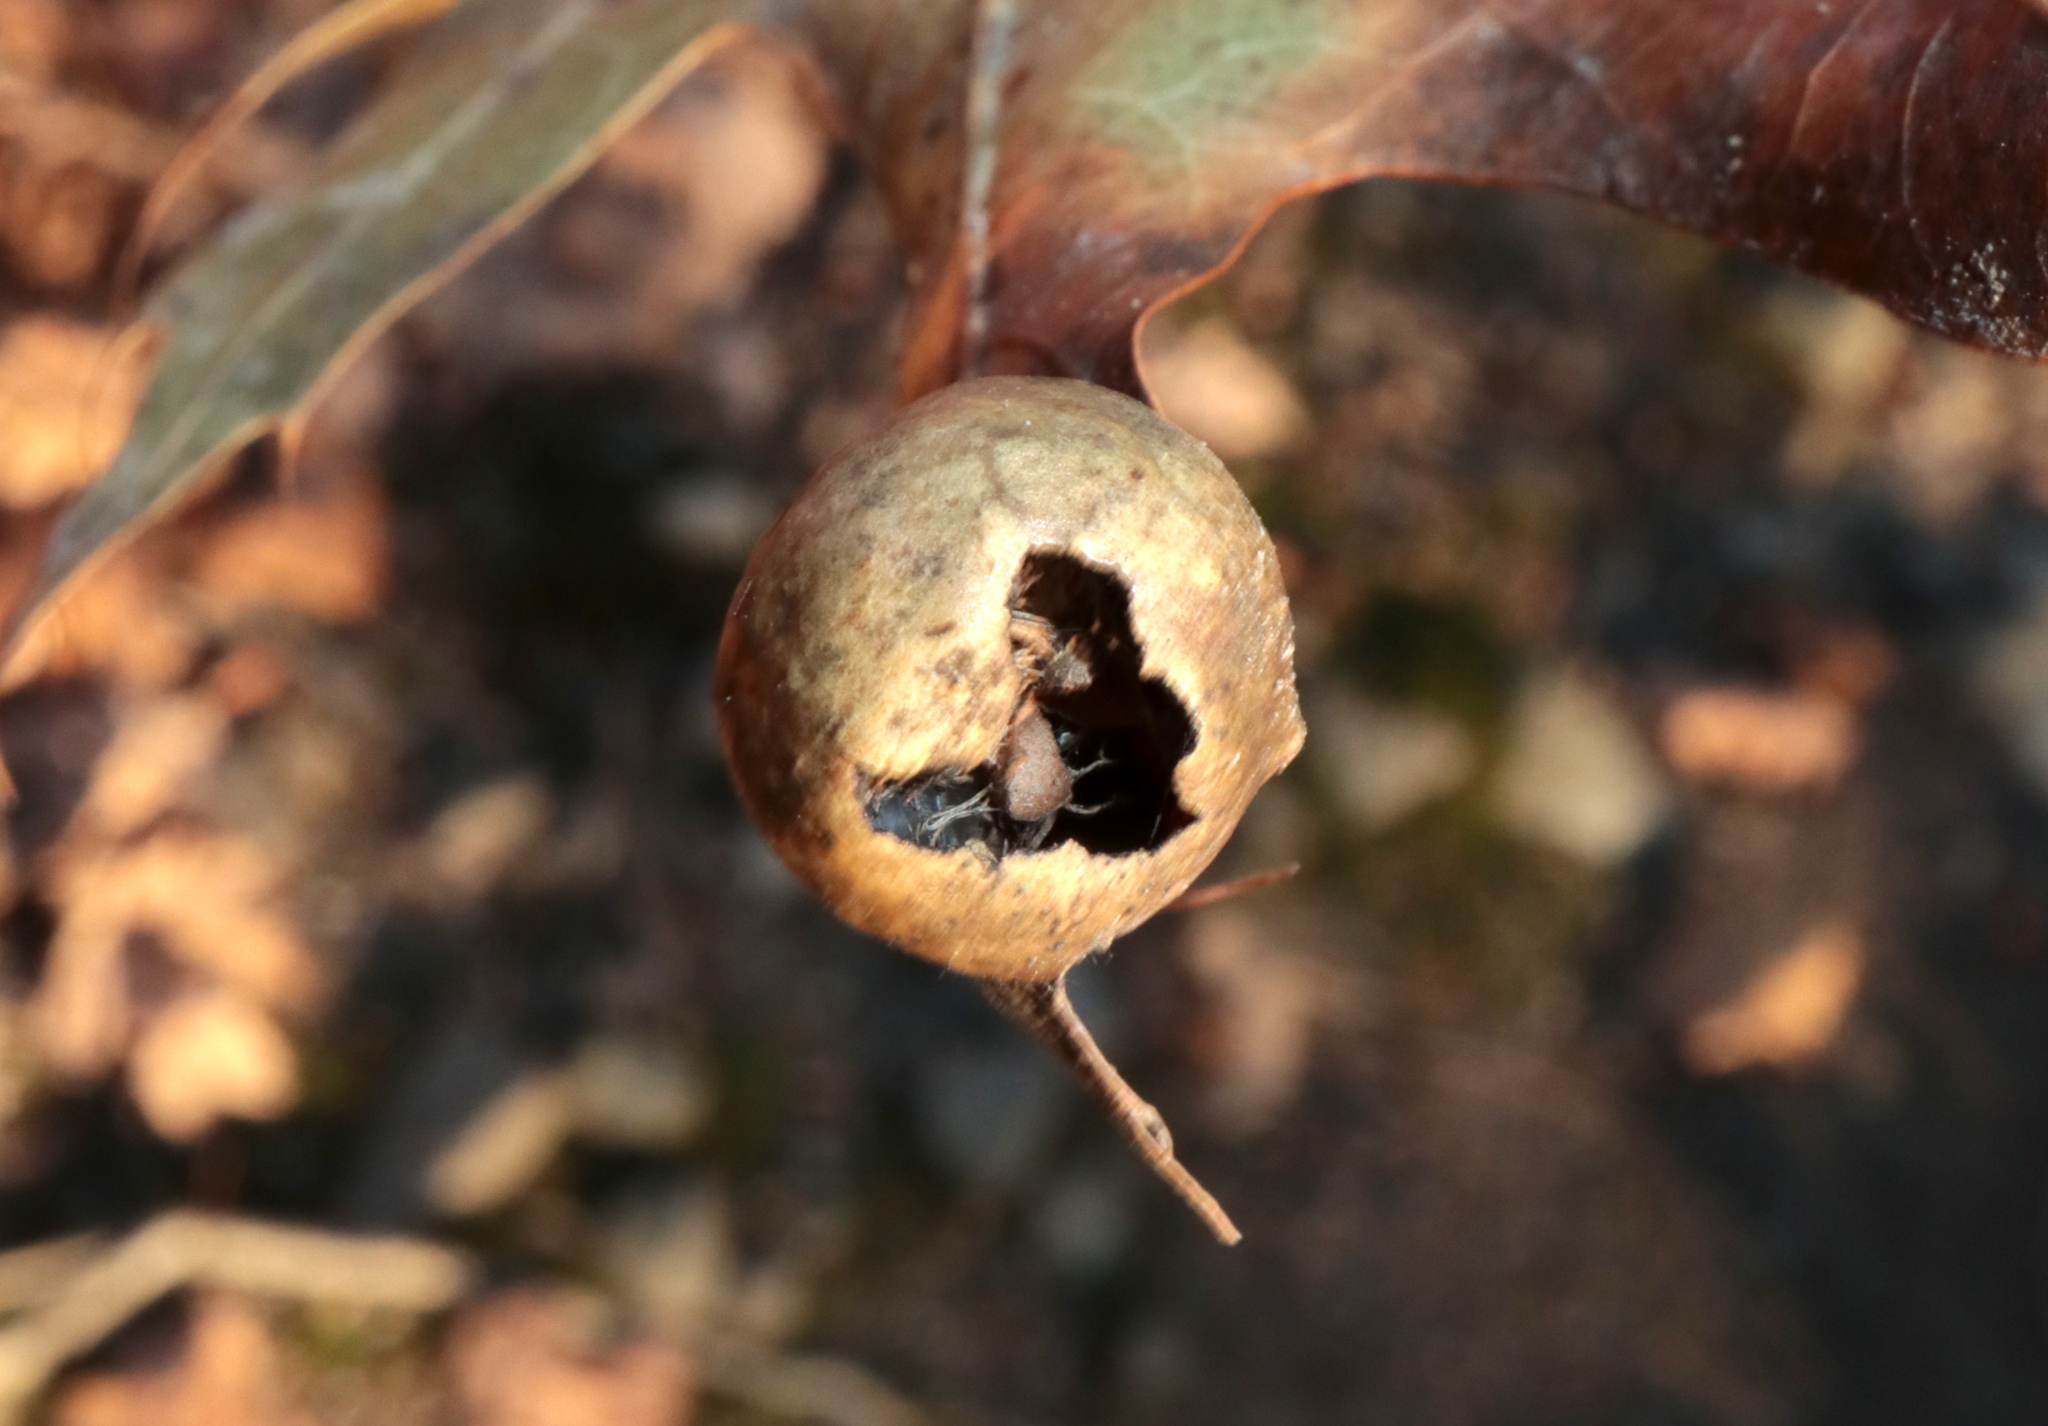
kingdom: Animalia
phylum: Arthropoda
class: Insecta
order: Hymenoptera
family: Cynipidae
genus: Amphibolips
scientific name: Amphibolips
